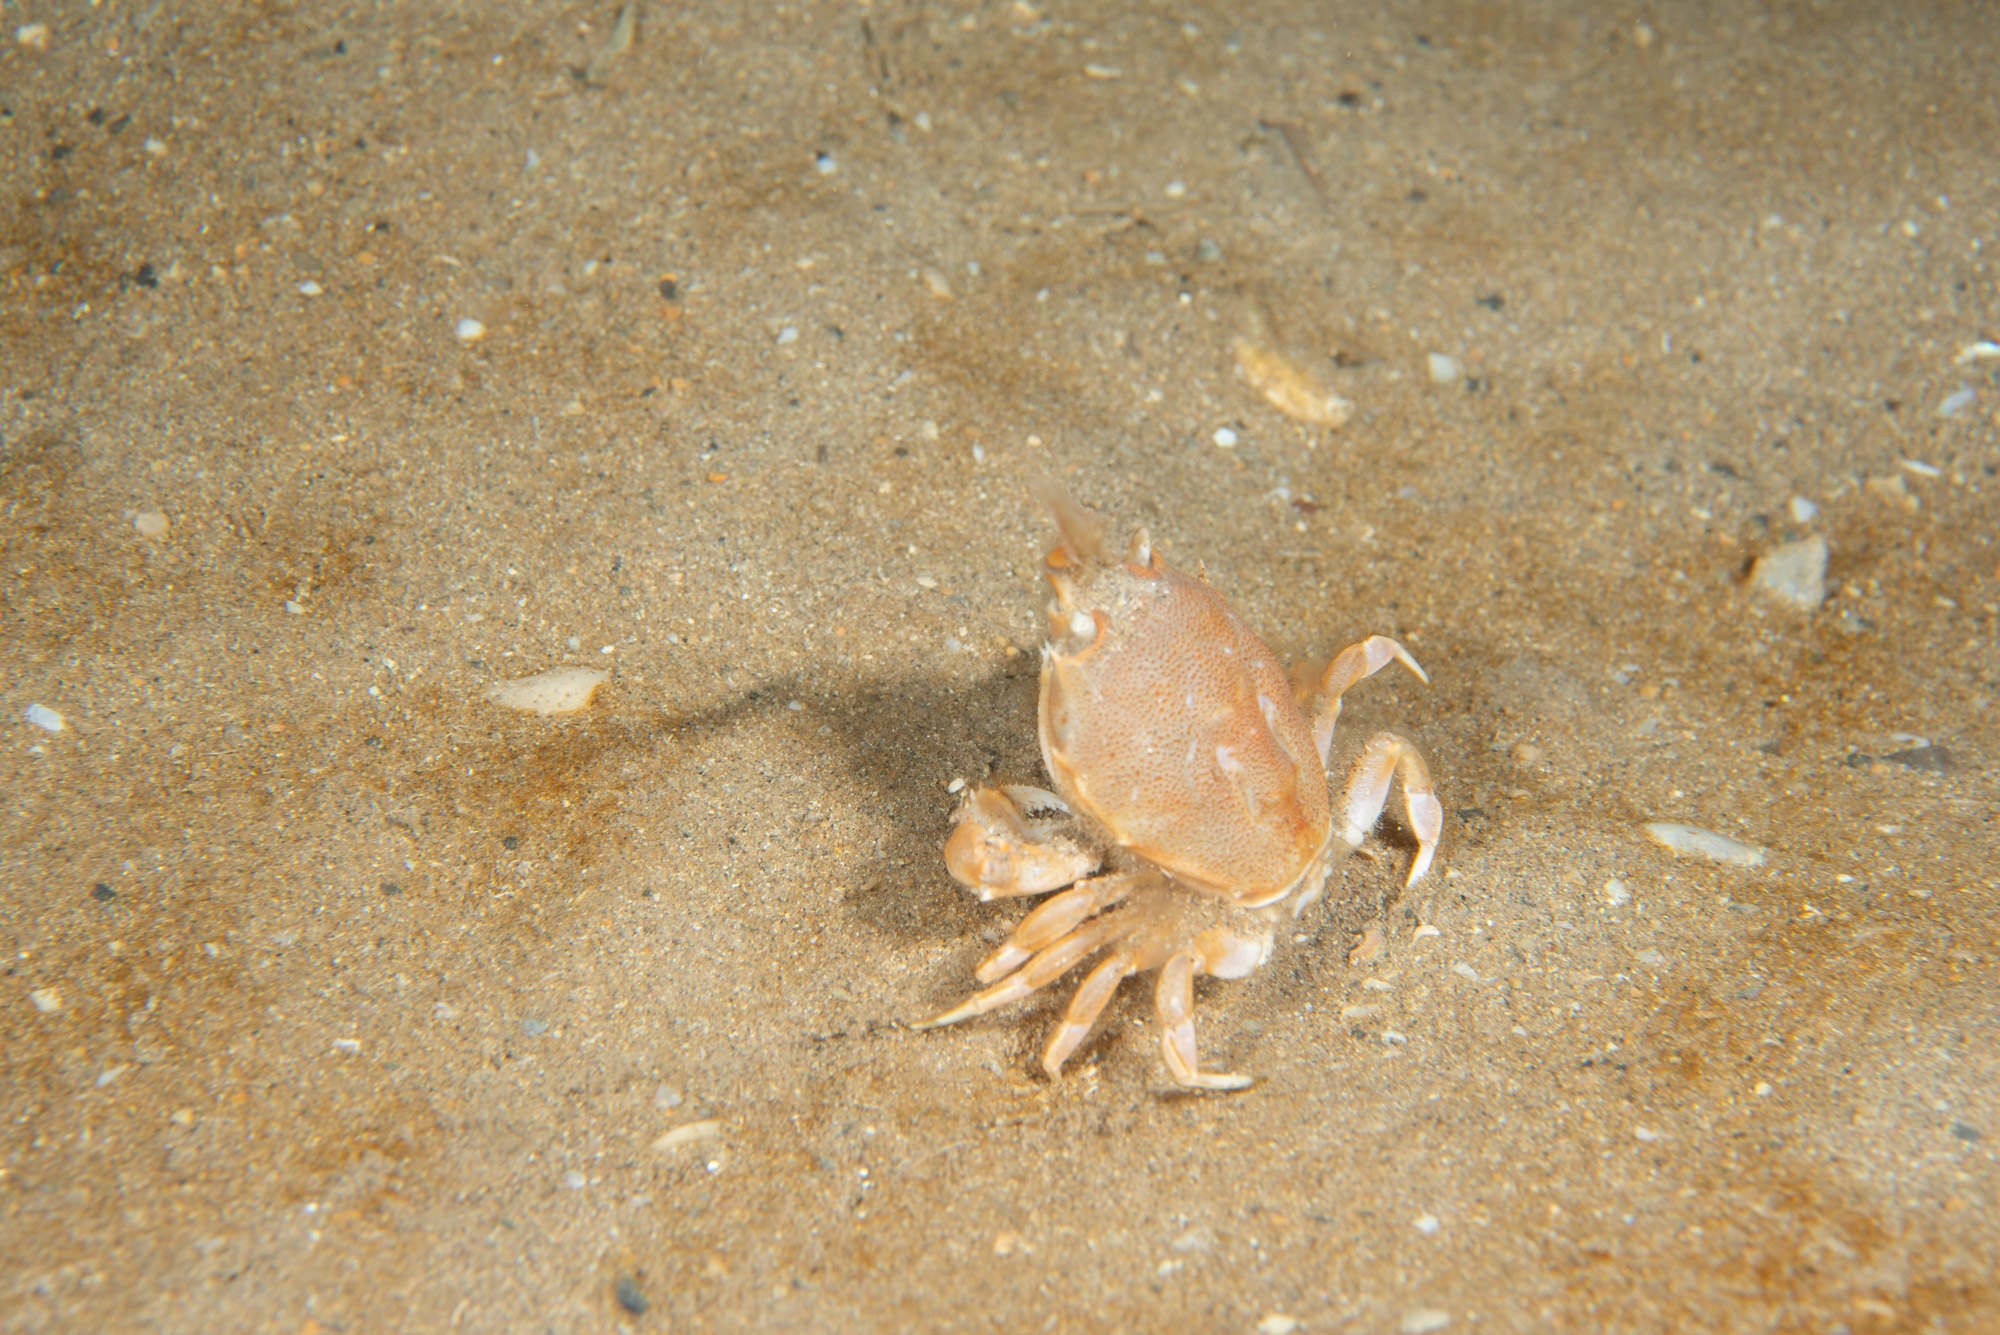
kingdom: Animalia
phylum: Arthropoda
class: Malacostraca
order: Decapoda
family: Corystidae
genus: Corystes
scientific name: Corystes cassivelaunus
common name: Masked crab
